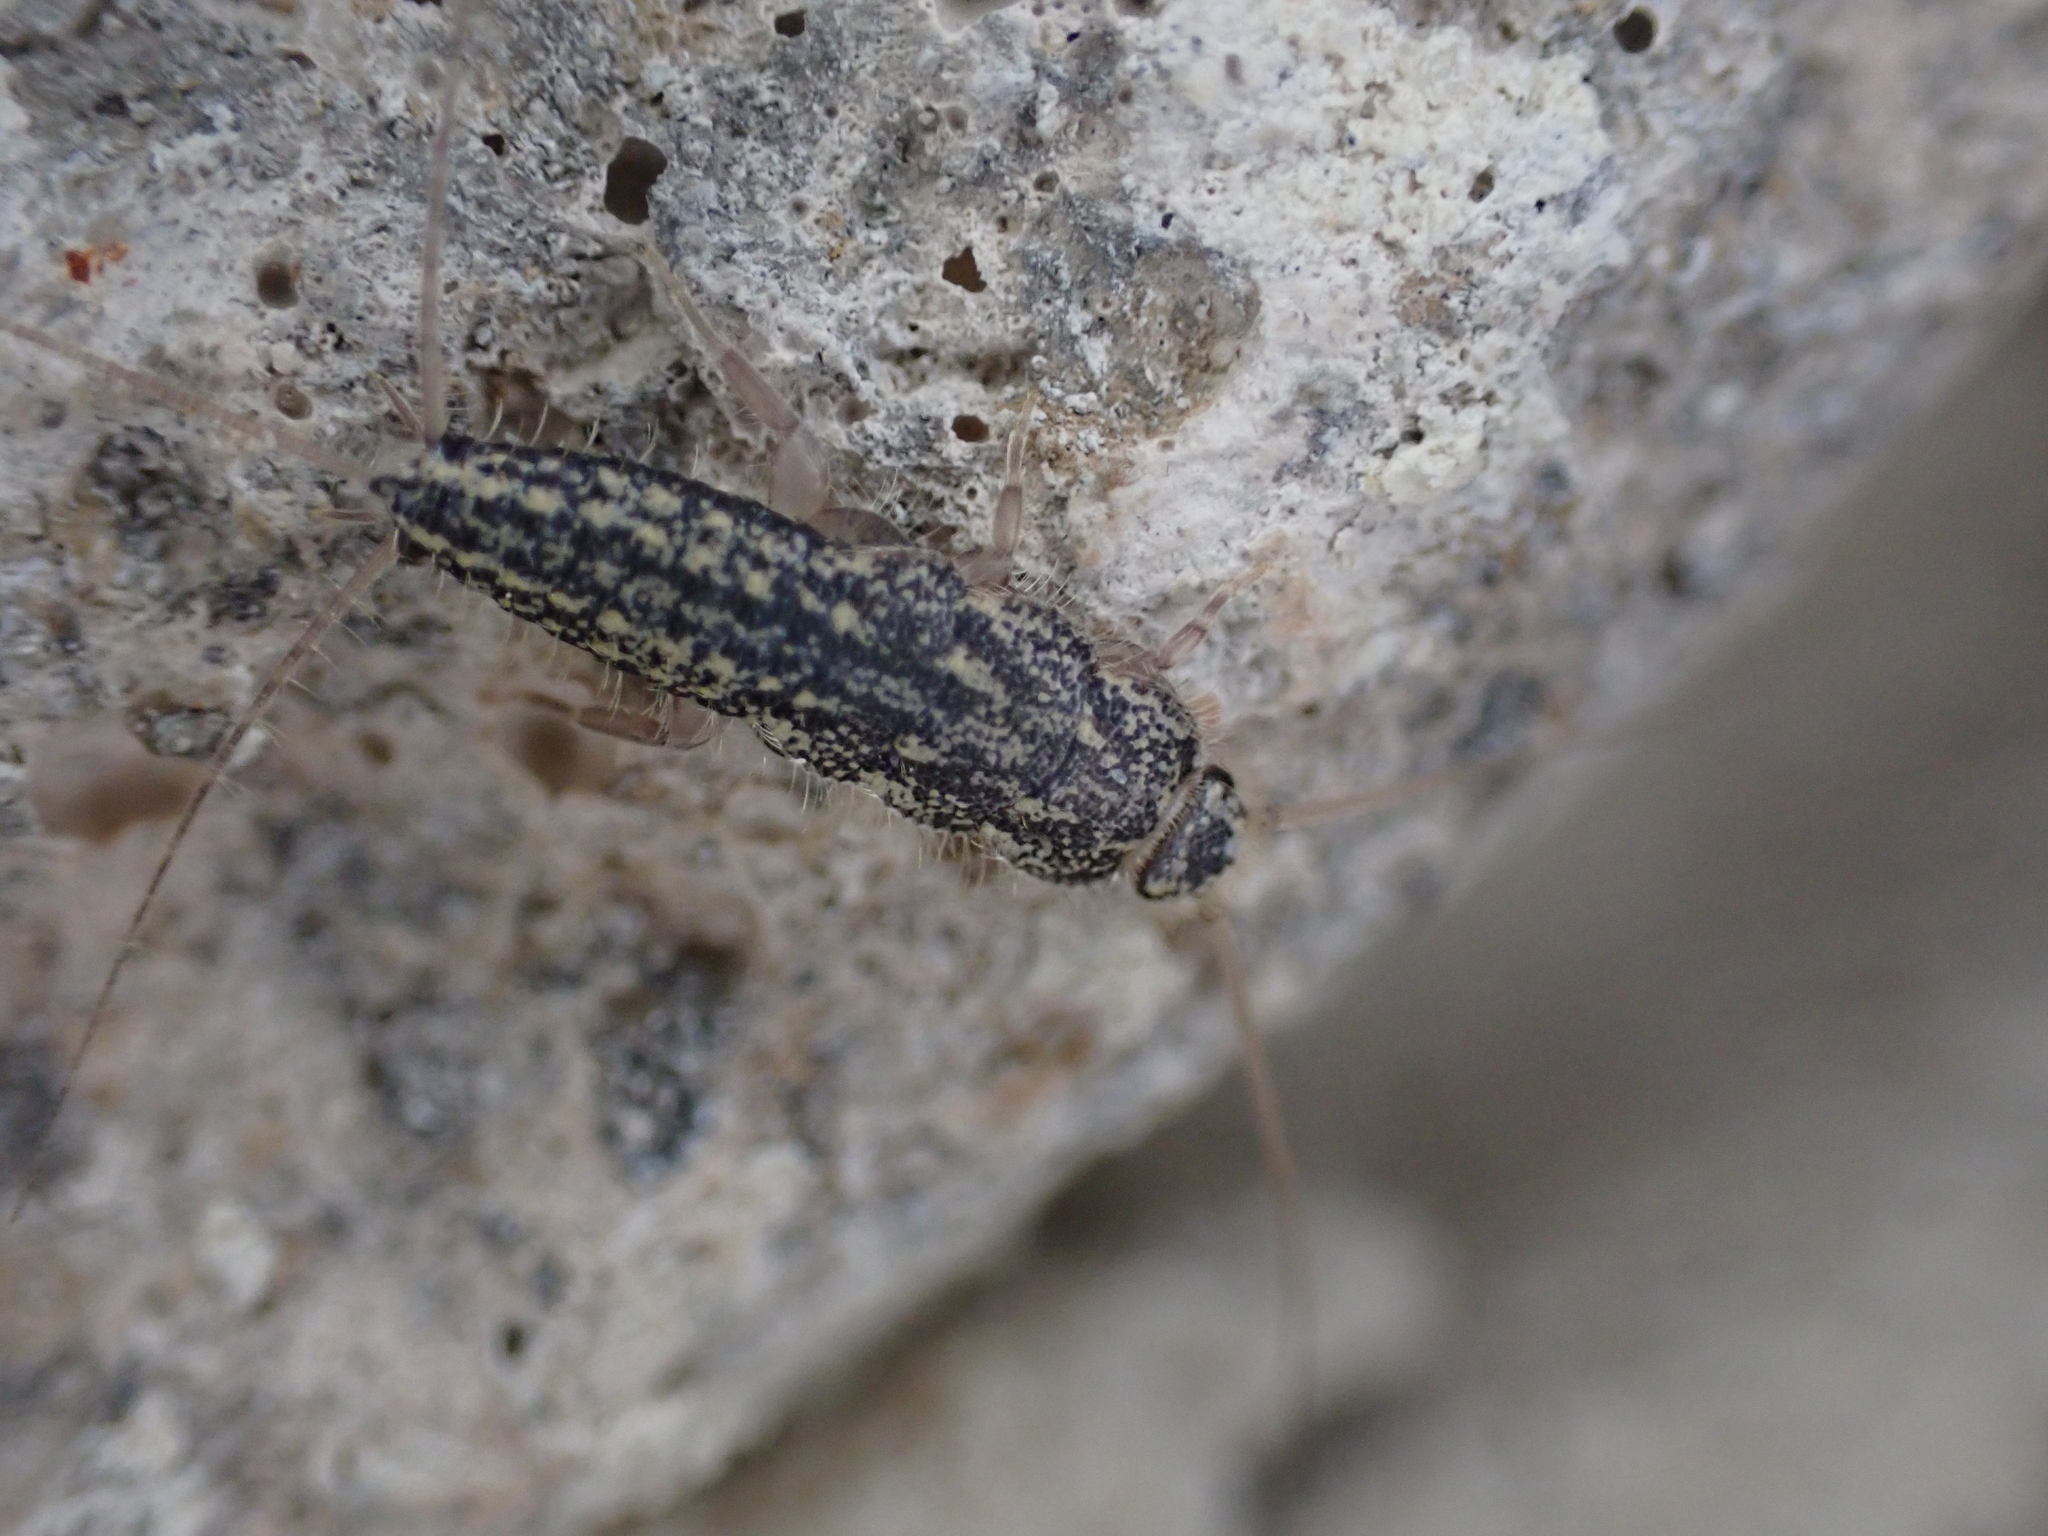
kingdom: Animalia
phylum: Arthropoda
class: Insecta
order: Zygentoma
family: Lepismatidae
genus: Ctenolepisma
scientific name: Ctenolepisma lineata
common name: Four-lined silverfish
